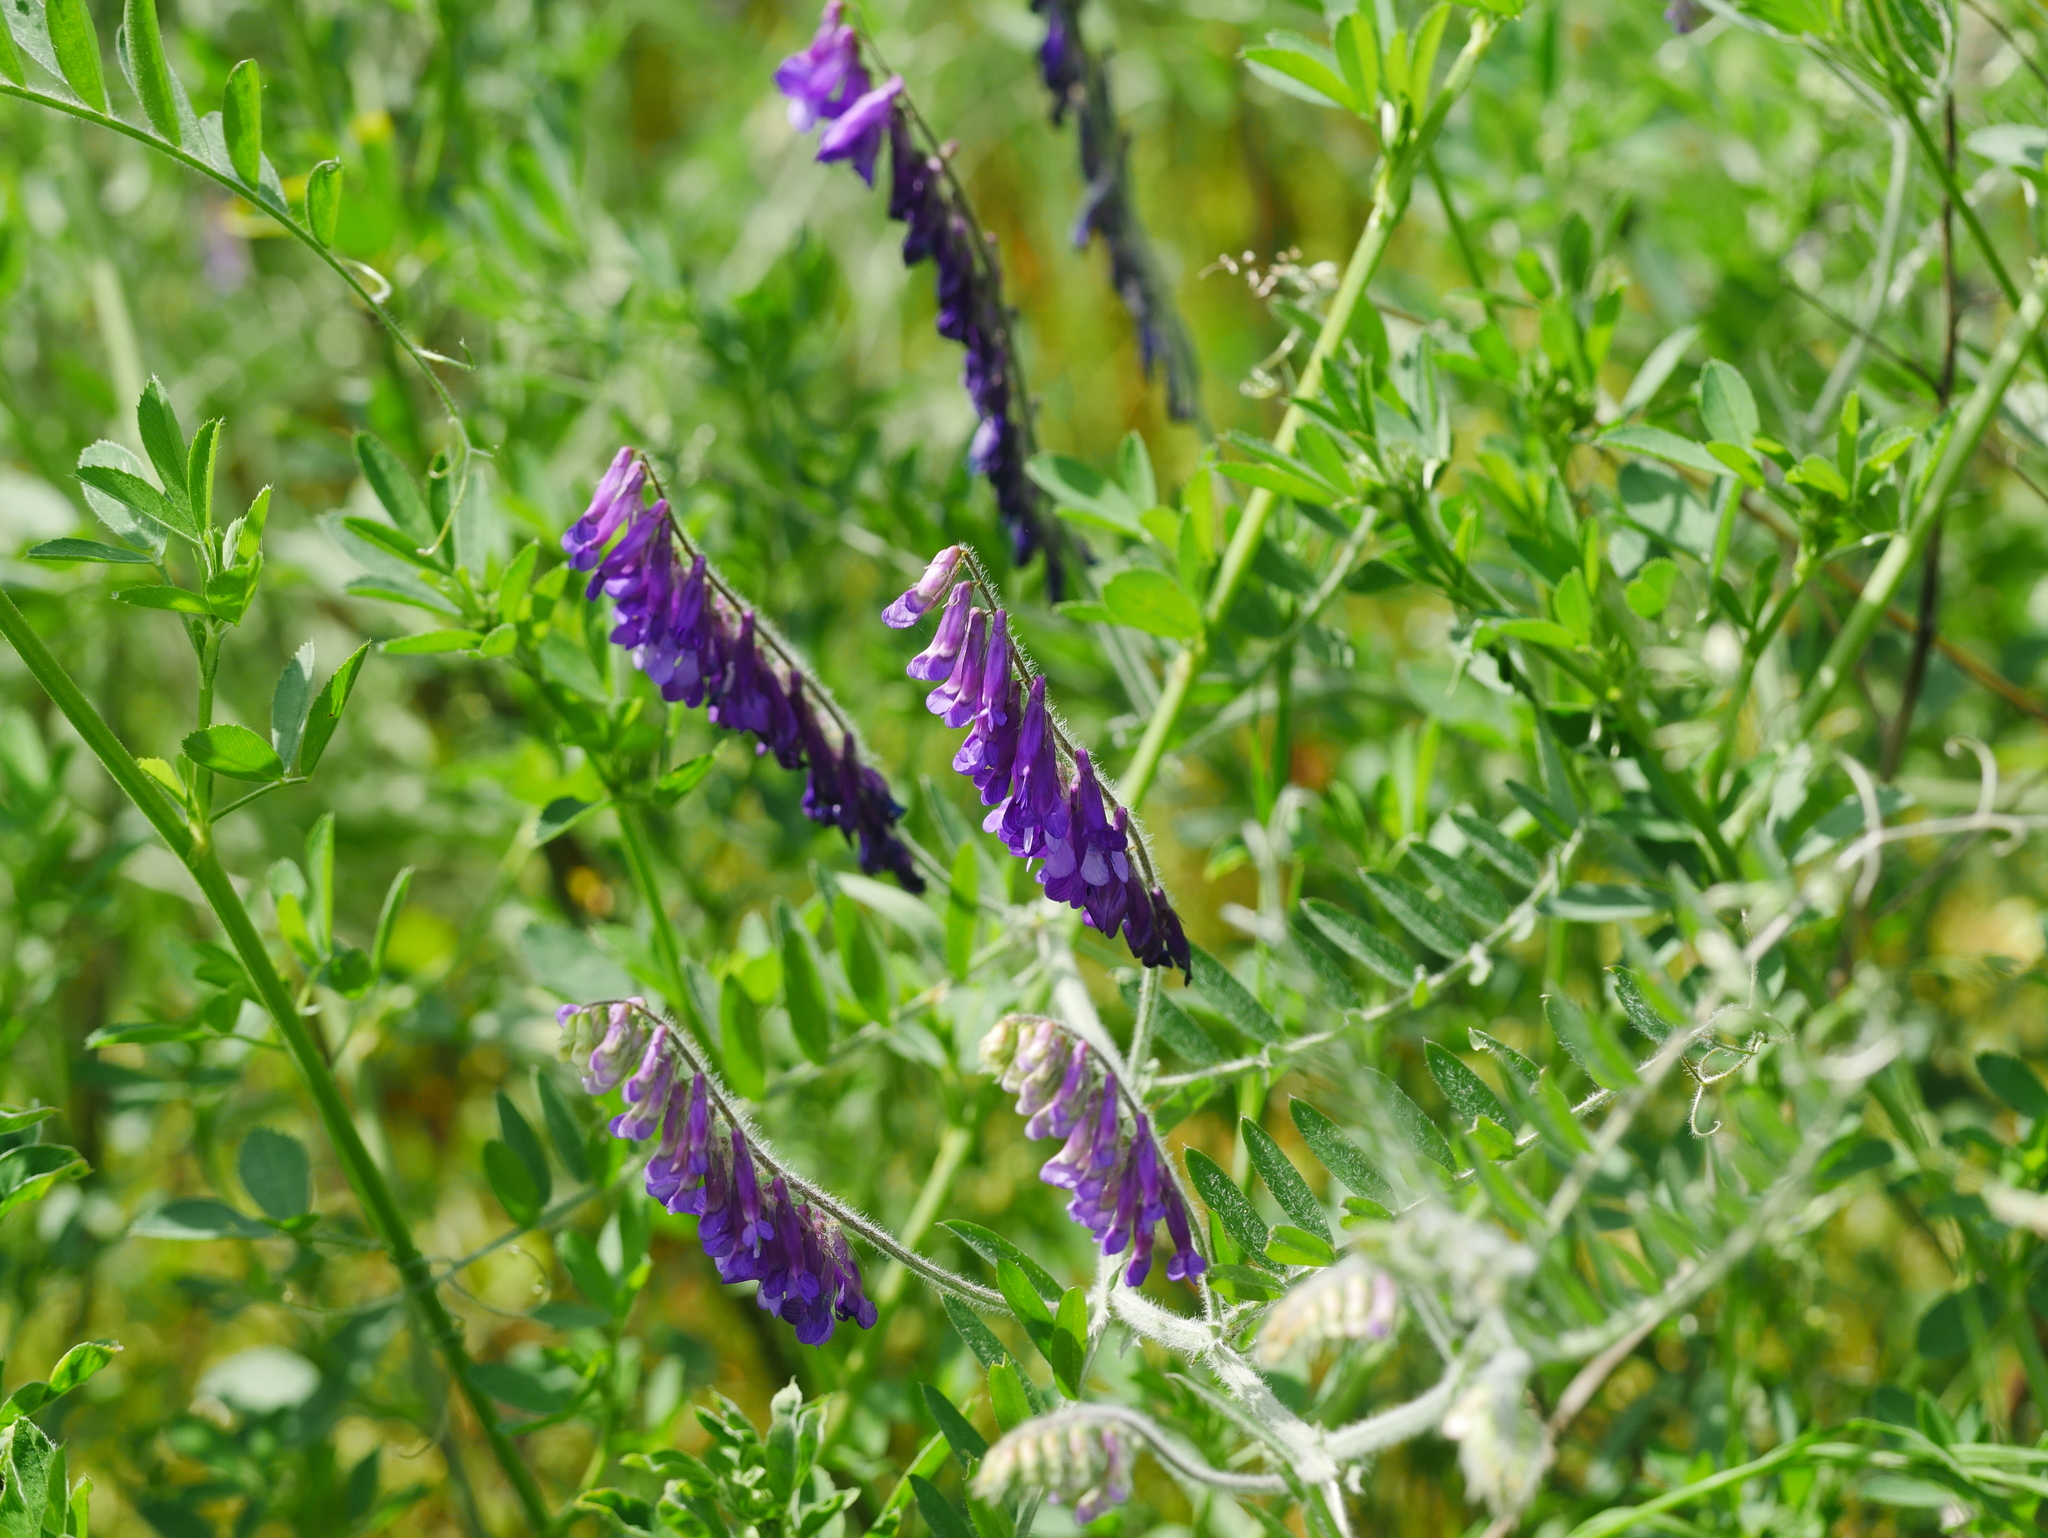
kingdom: Plantae
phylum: Tracheophyta
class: Magnoliopsida
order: Fabales
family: Fabaceae
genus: Vicia
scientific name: Vicia villosa
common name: Fodder vetch
